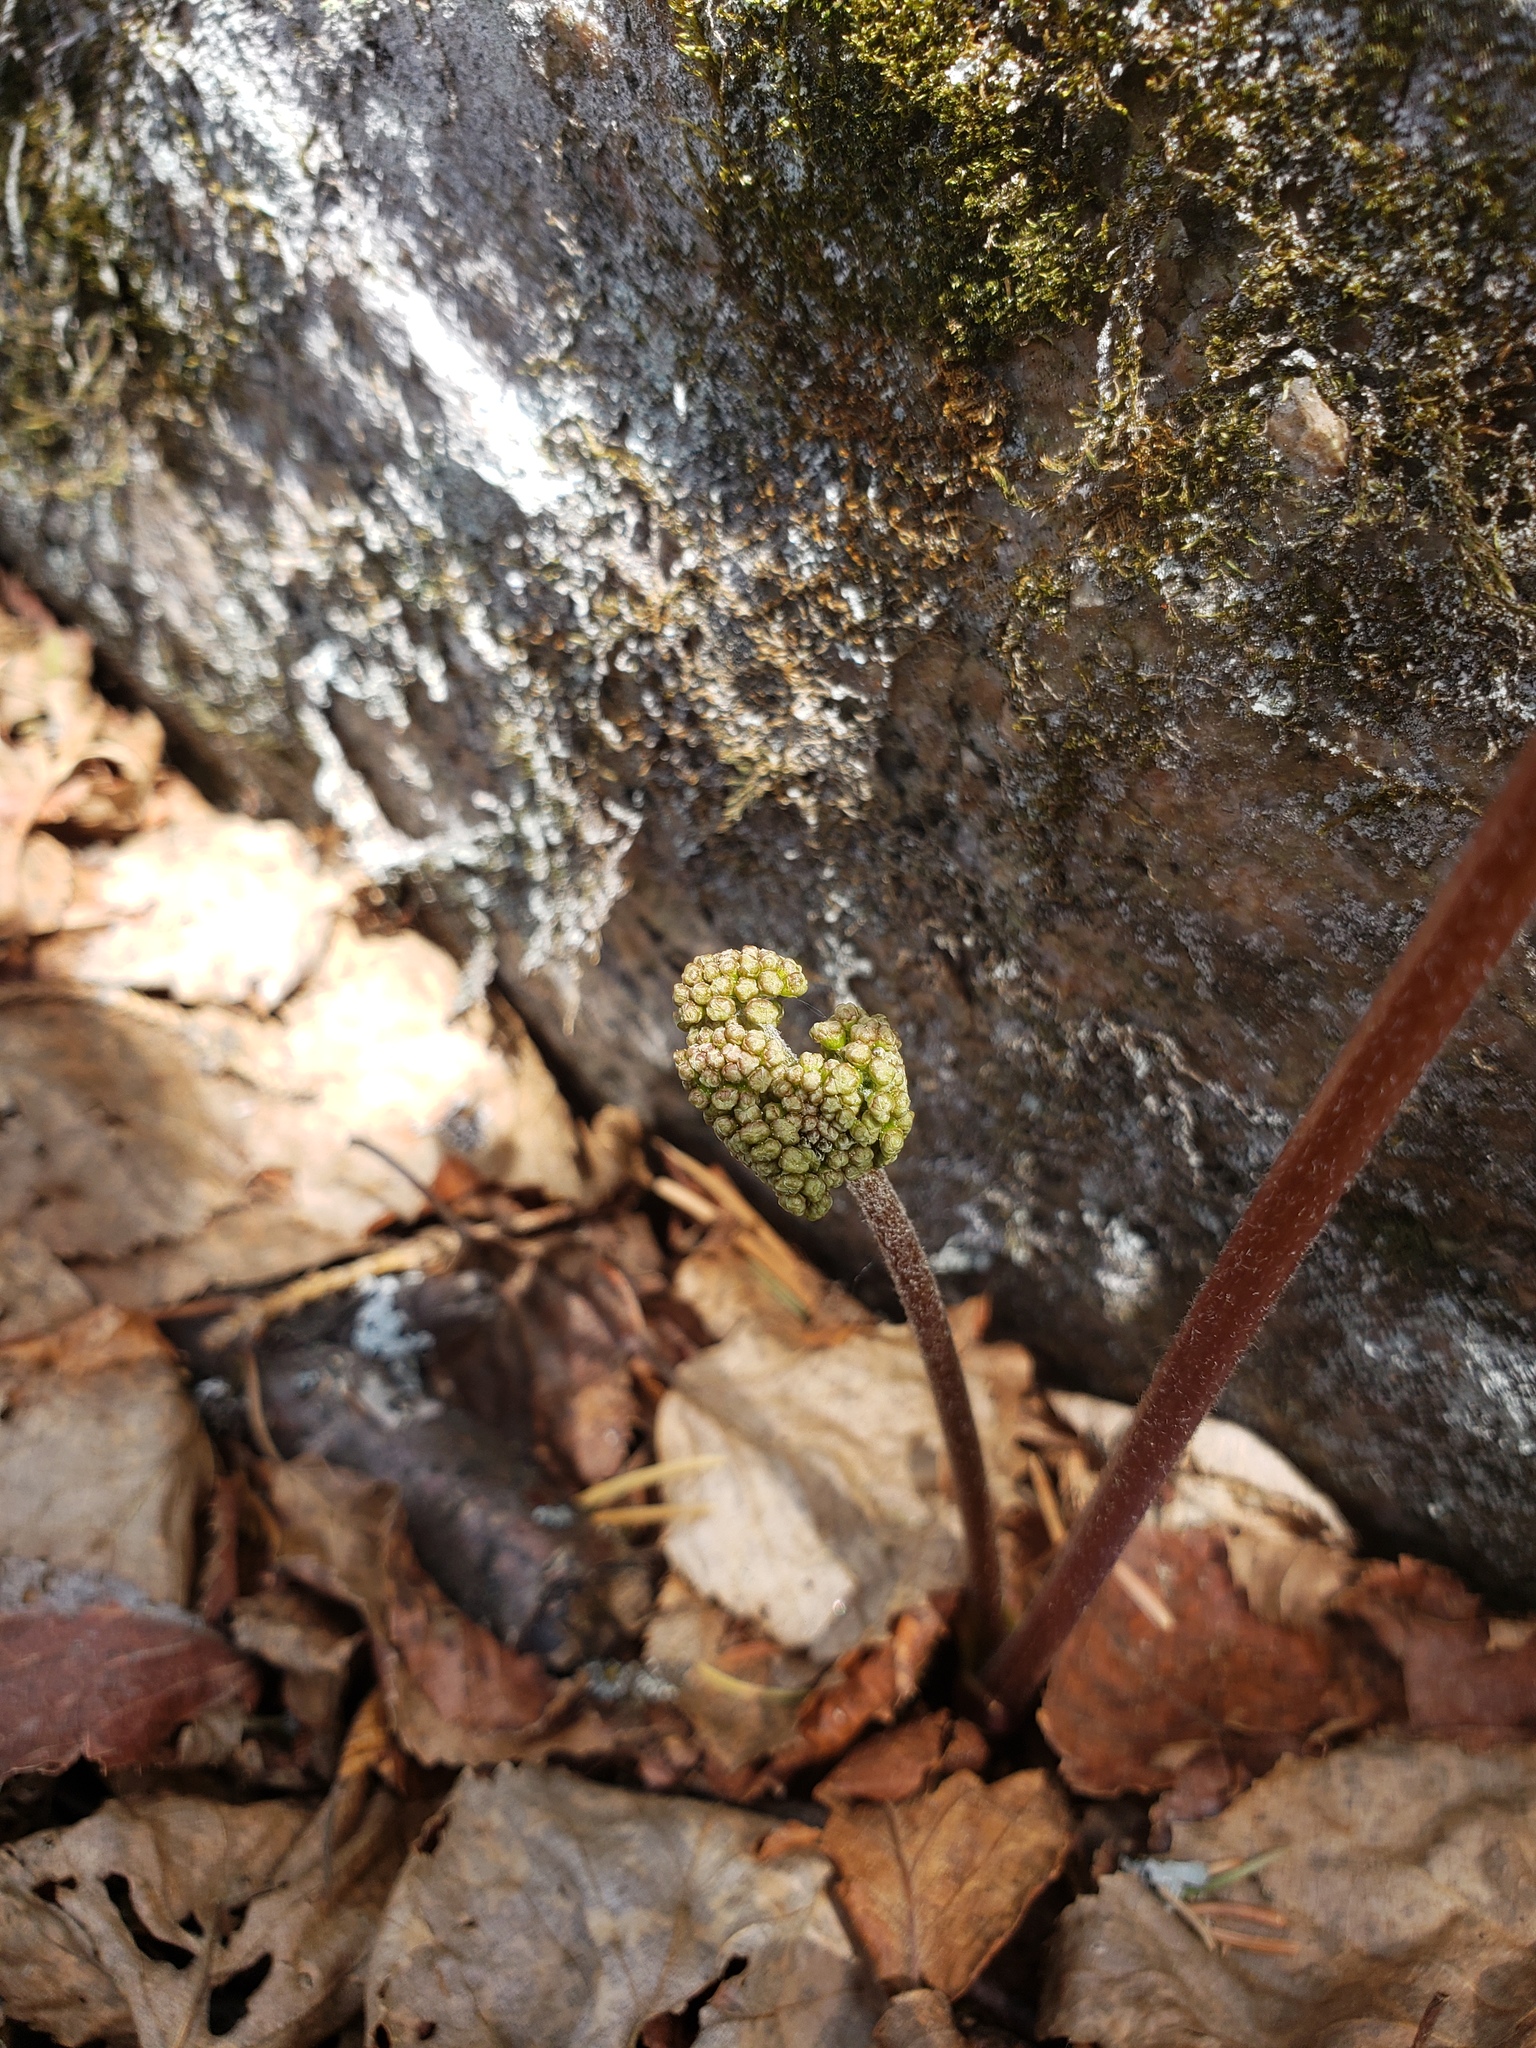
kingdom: Plantae
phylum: Tracheophyta
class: Magnoliopsida
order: Apiales
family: Araliaceae
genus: Aralia
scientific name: Aralia nudicaulis
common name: Wild sarsaparilla
